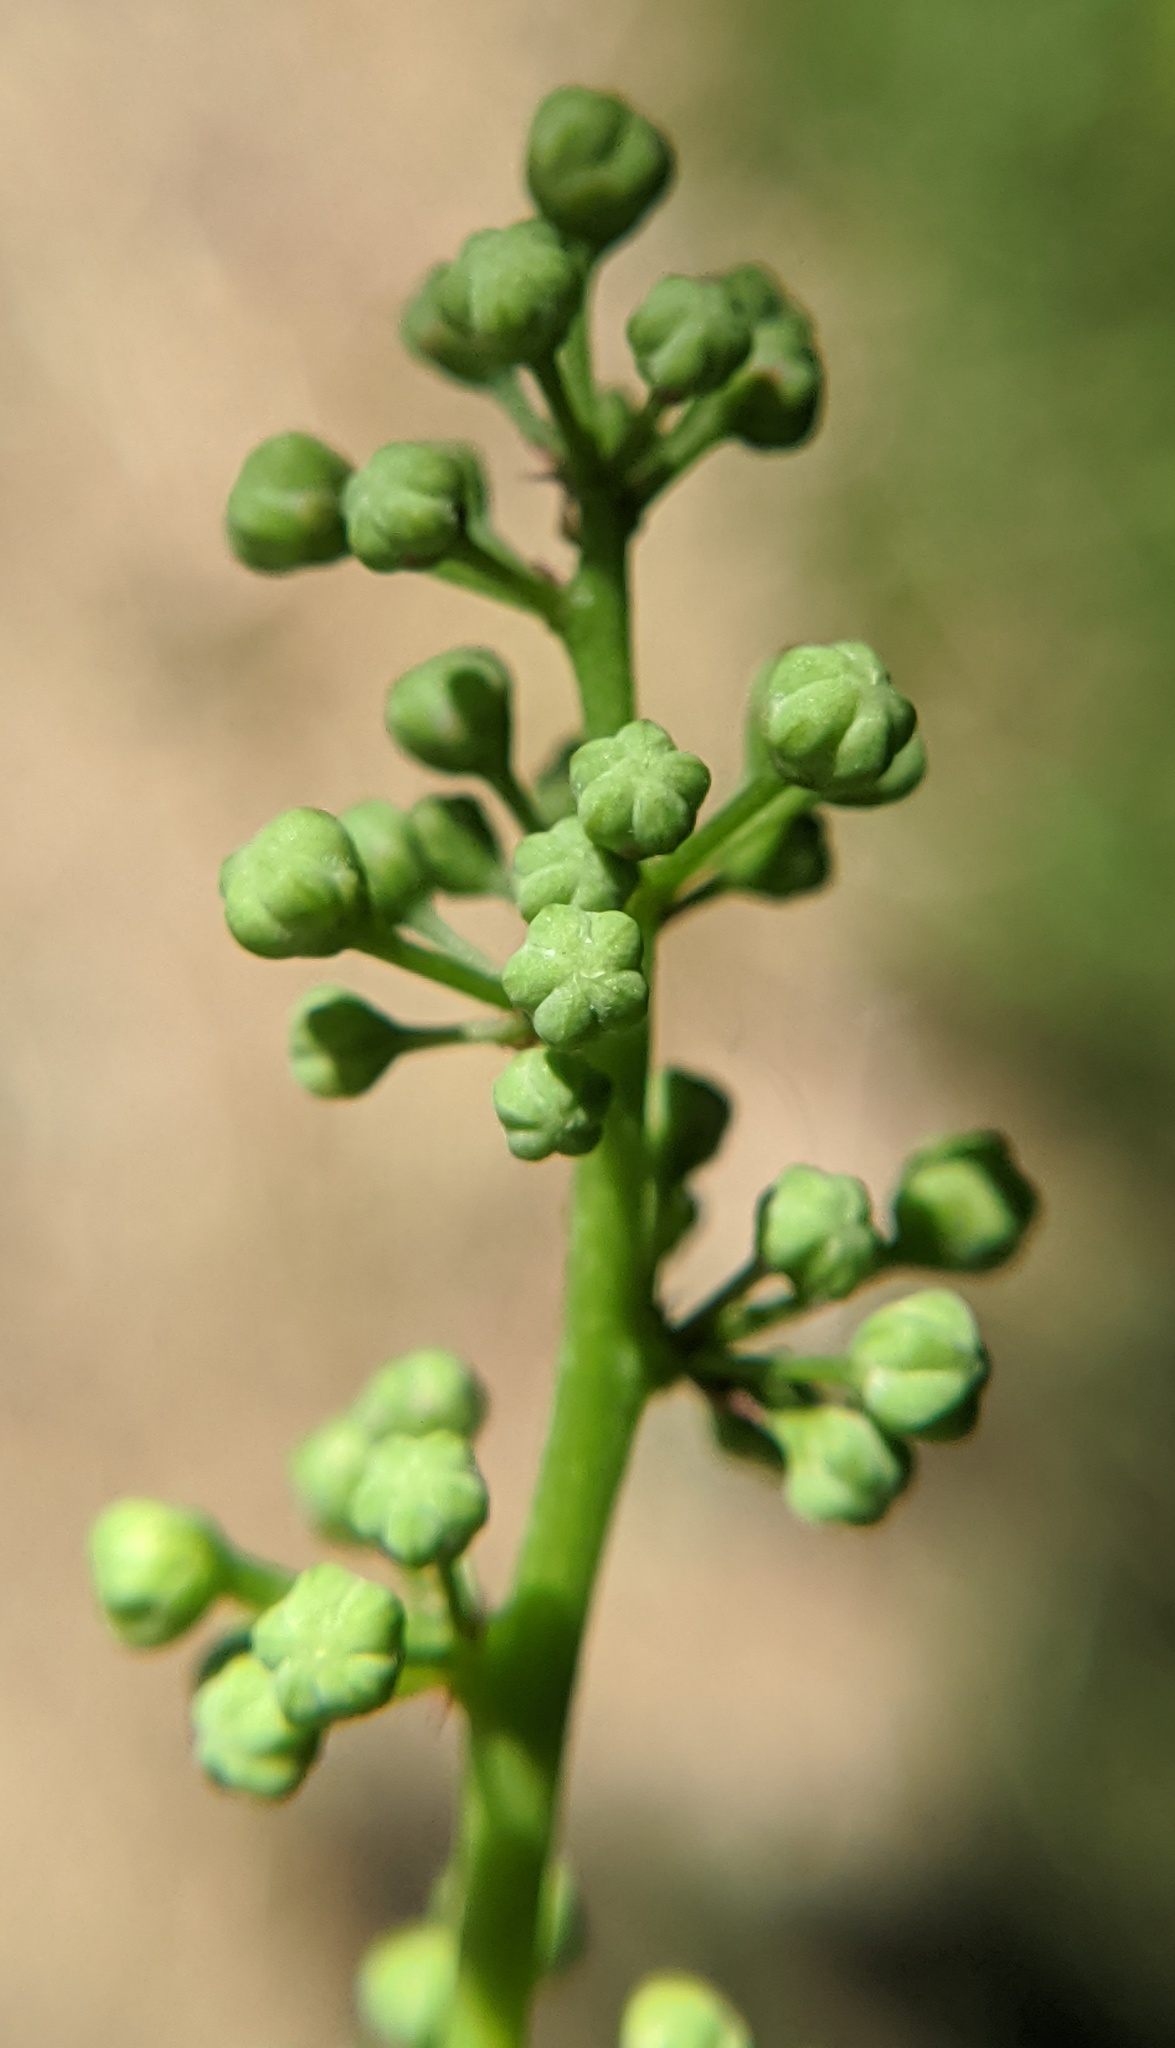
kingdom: Plantae
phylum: Tracheophyta
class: Magnoliopsida
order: Sapindales
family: Simaroubaceae
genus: Ailanthus
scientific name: Ailanthus altissima
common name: Tree-of-heaven
